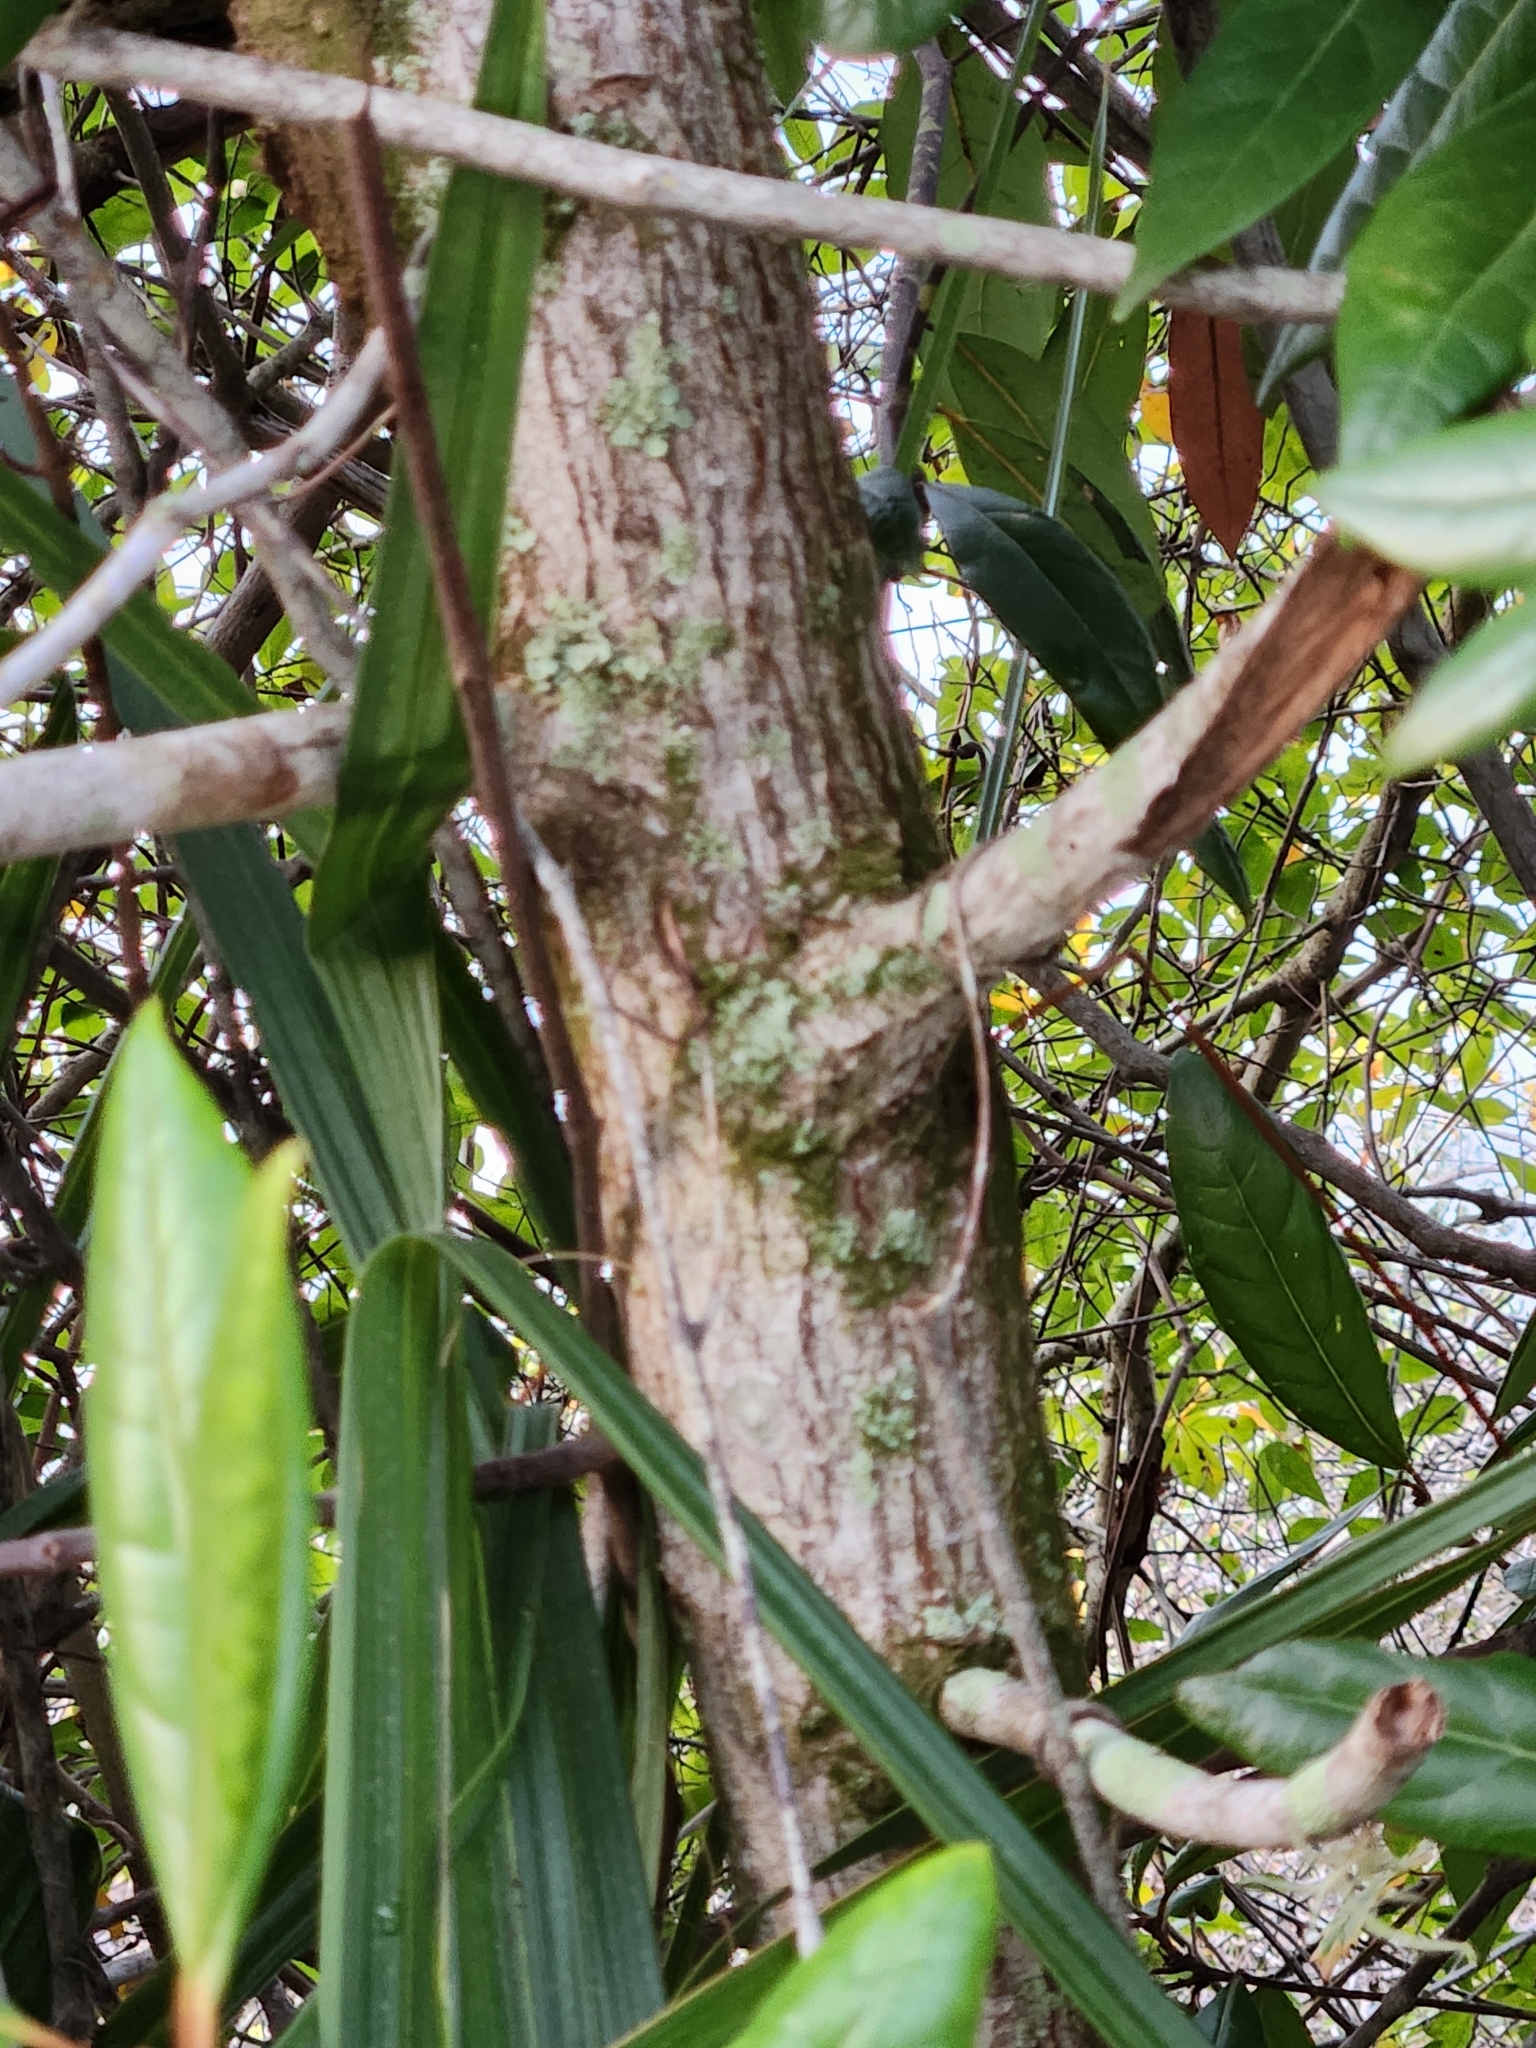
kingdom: Plantae
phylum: Tracheophyta
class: Magnoliopsida
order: Ericales
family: Ericaceae
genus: Lyonia
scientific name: Lyonia ferruginea
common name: Rusty lyonia
